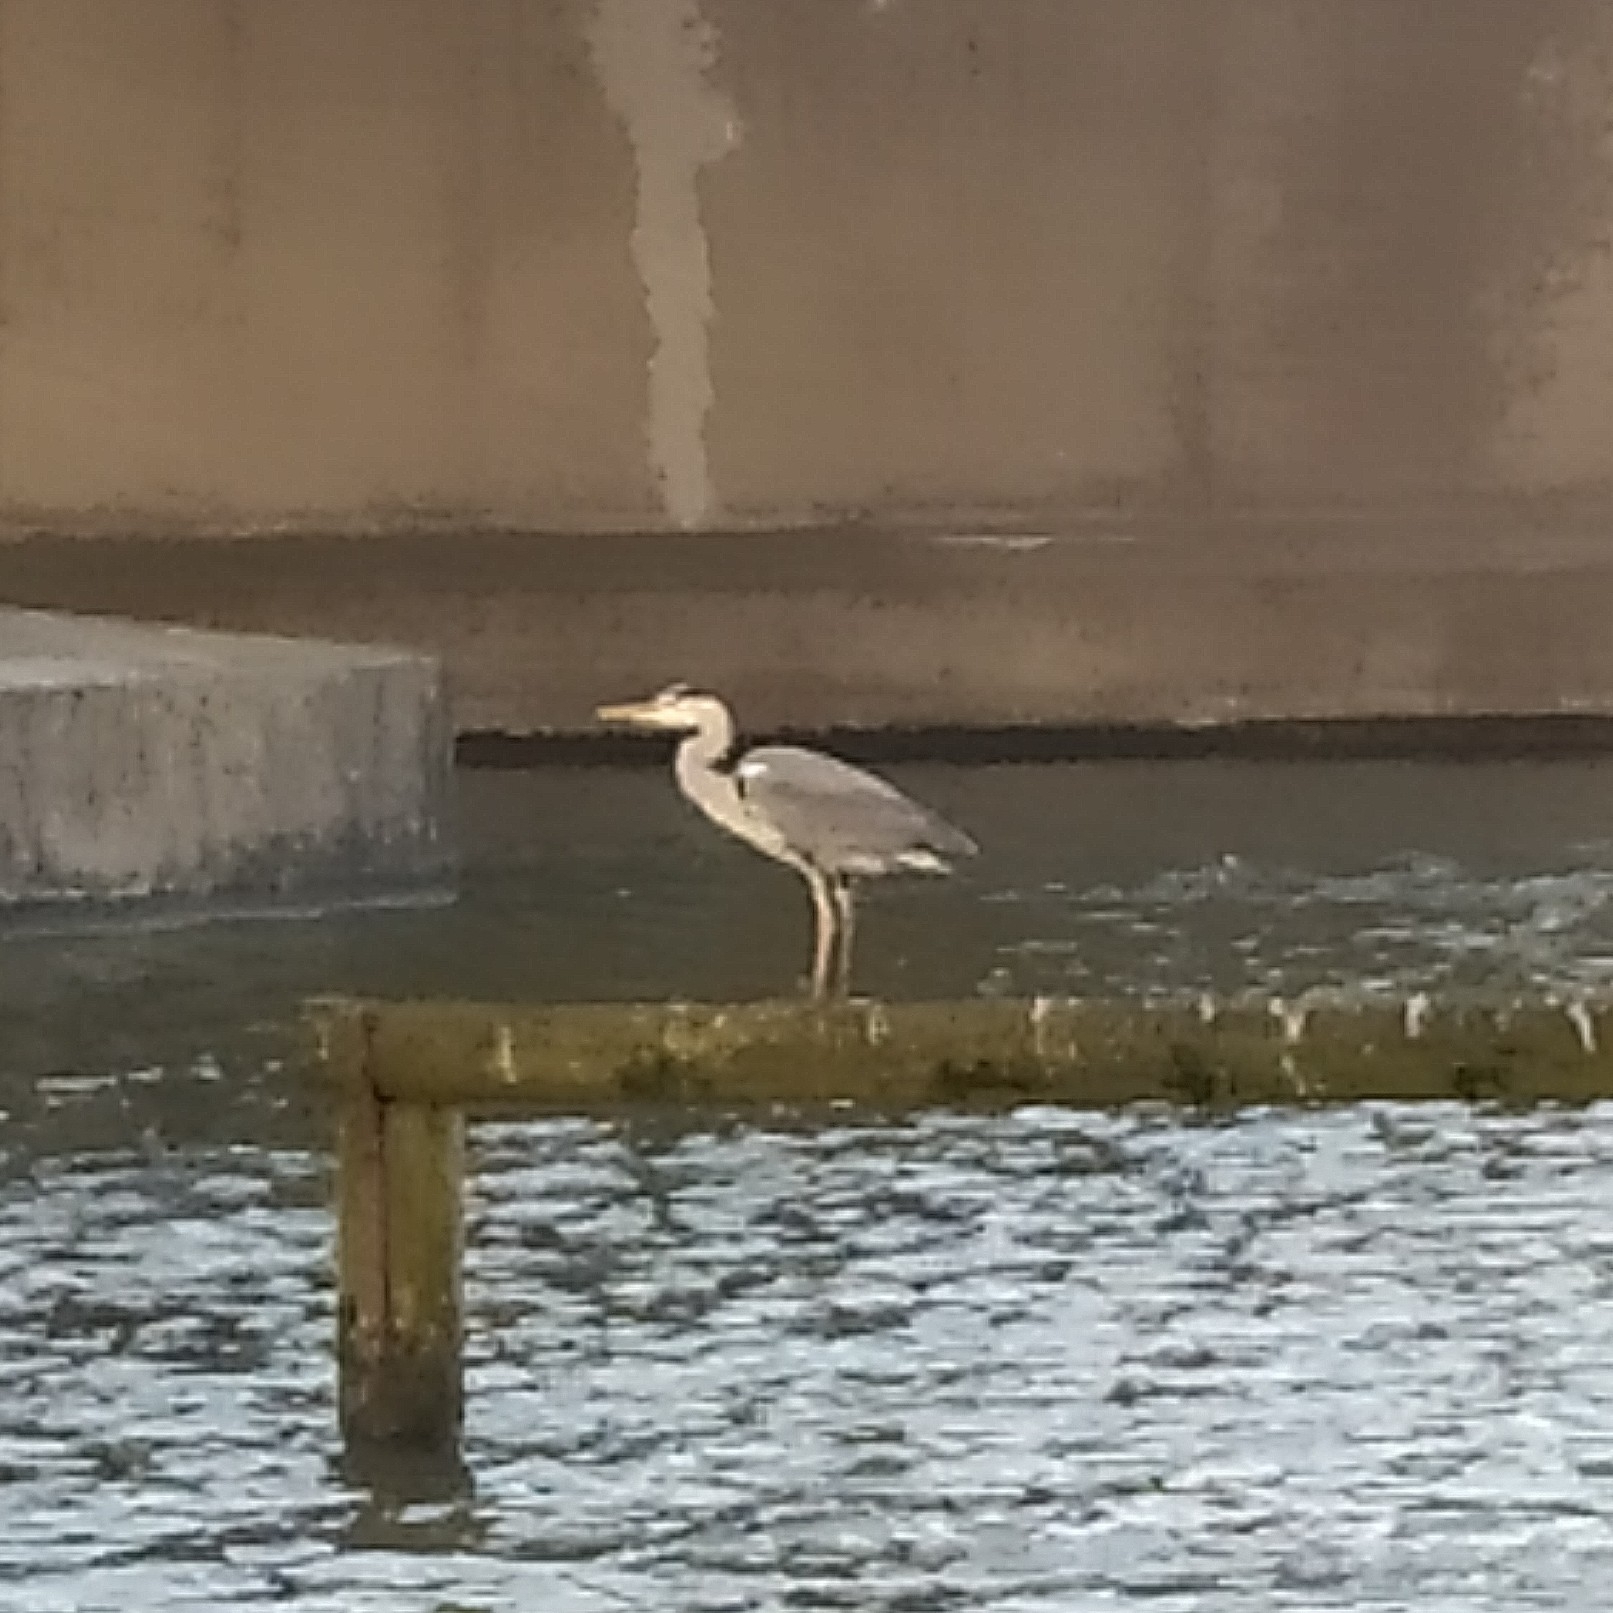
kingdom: Animalia
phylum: Chordata
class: Aves
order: Pelecaniformes
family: Ardeidae
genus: Ardea
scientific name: Ardea cinerea
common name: Grey heron
